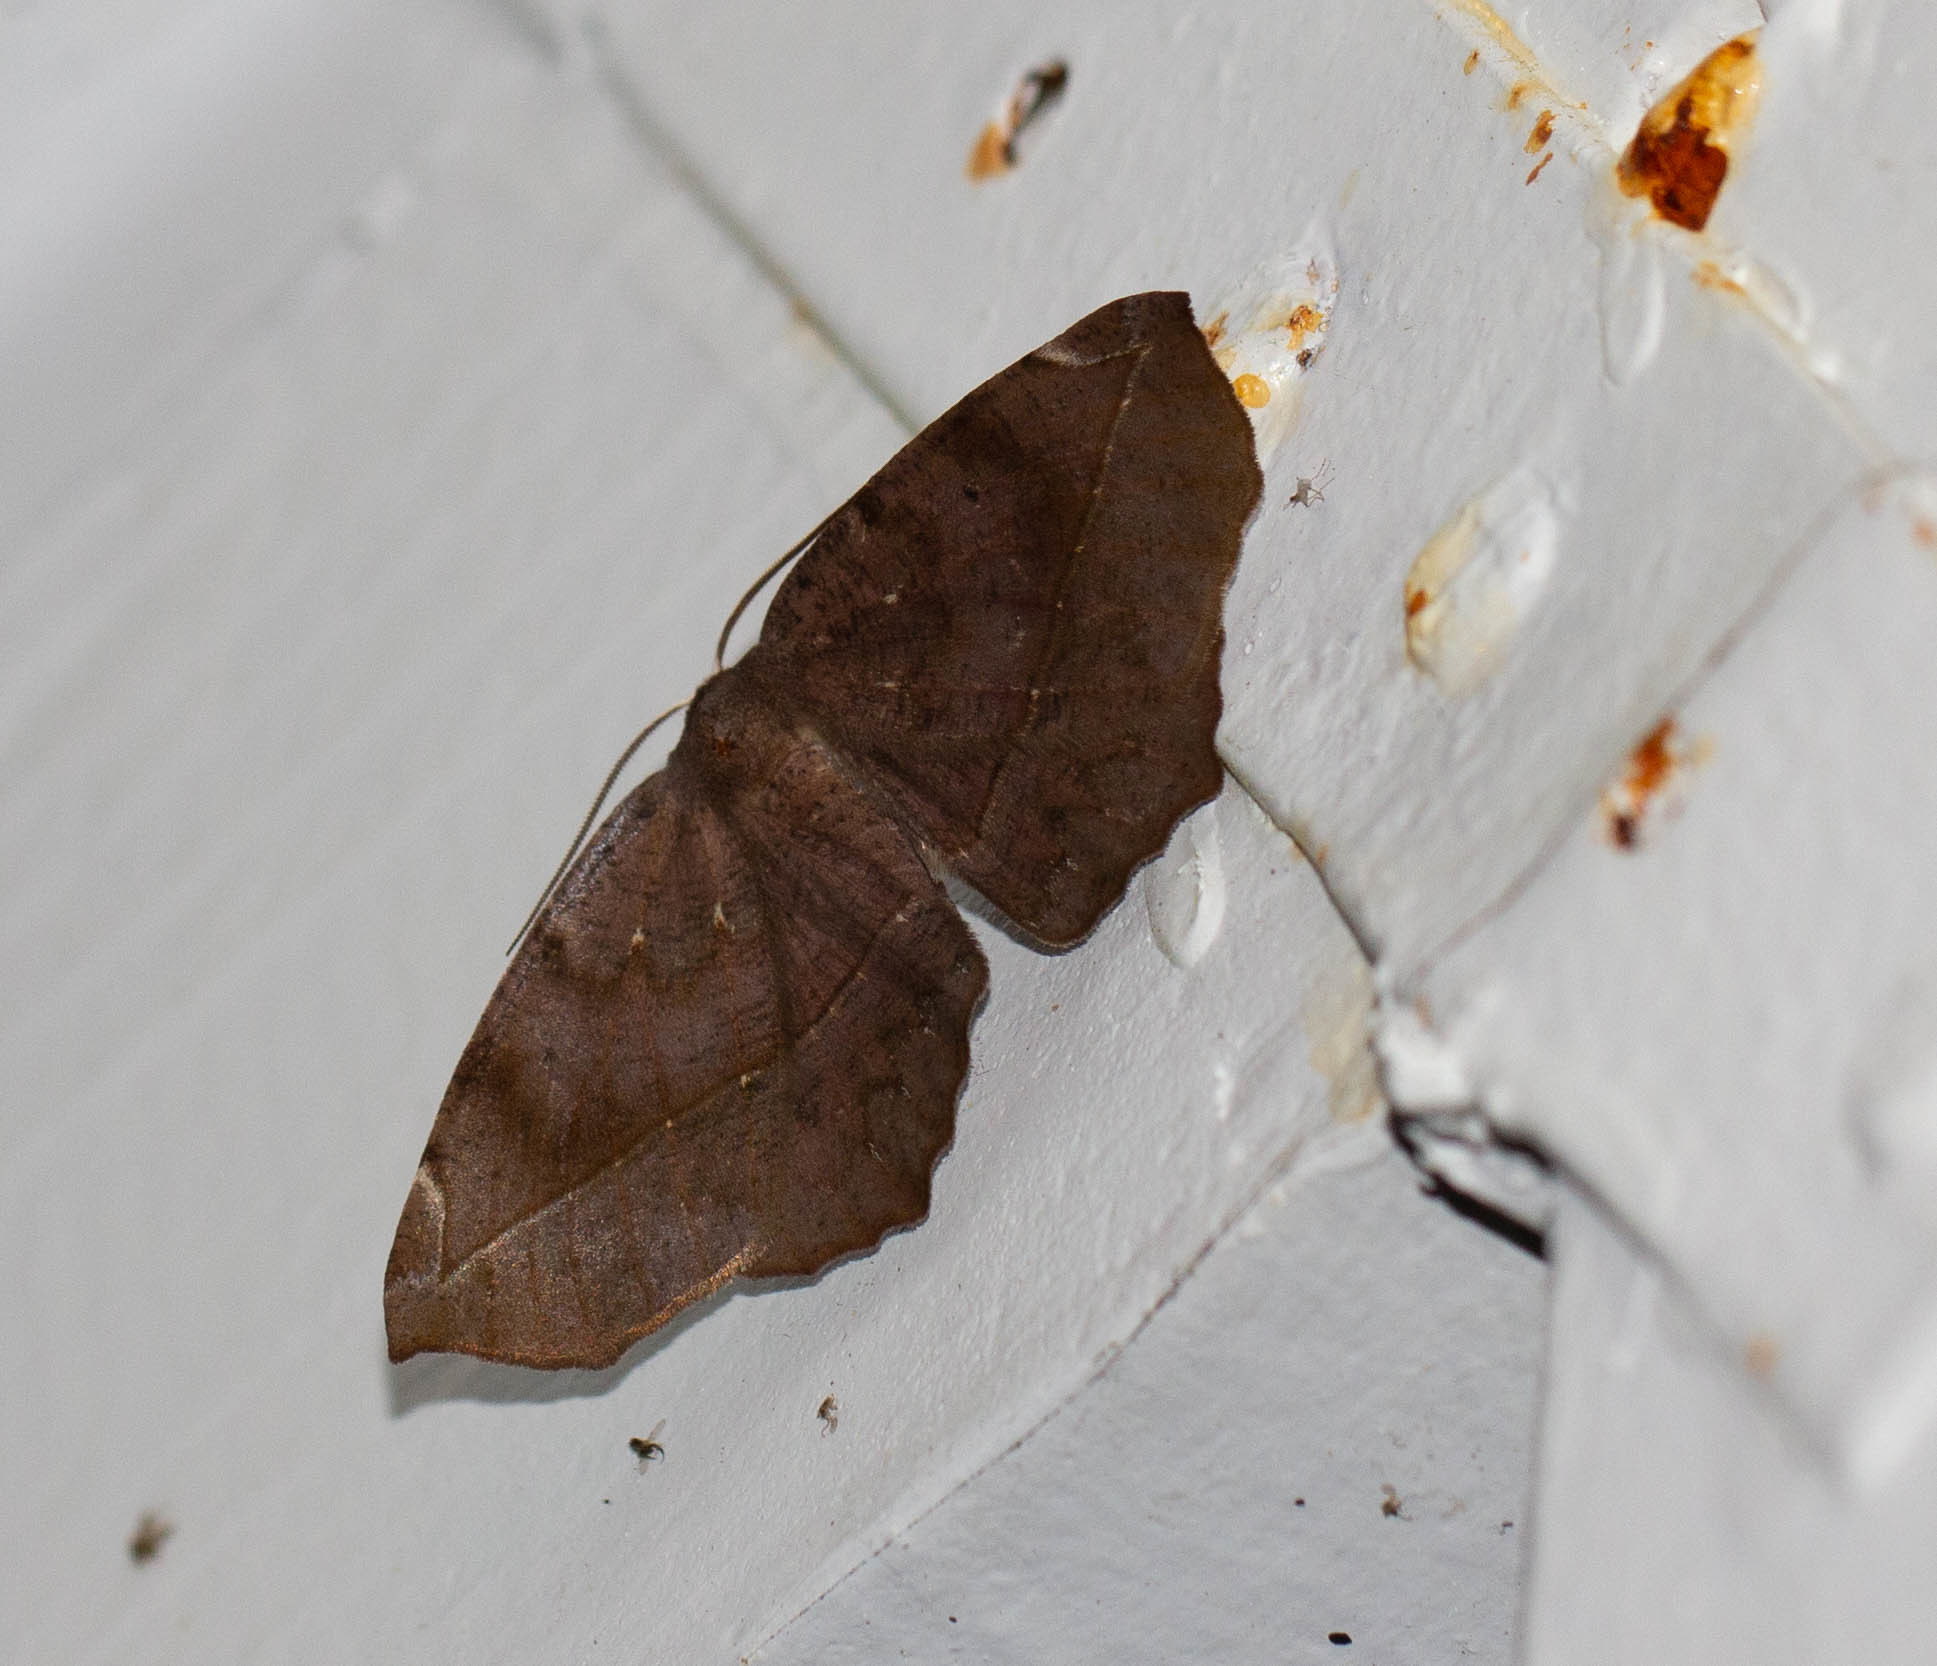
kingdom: Animalia
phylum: Arthropoda
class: Insecta
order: Lepidoptera
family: Geometridae
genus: Eutrapela
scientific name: Eutrapela clemataria
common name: Curved-toothed geometer
